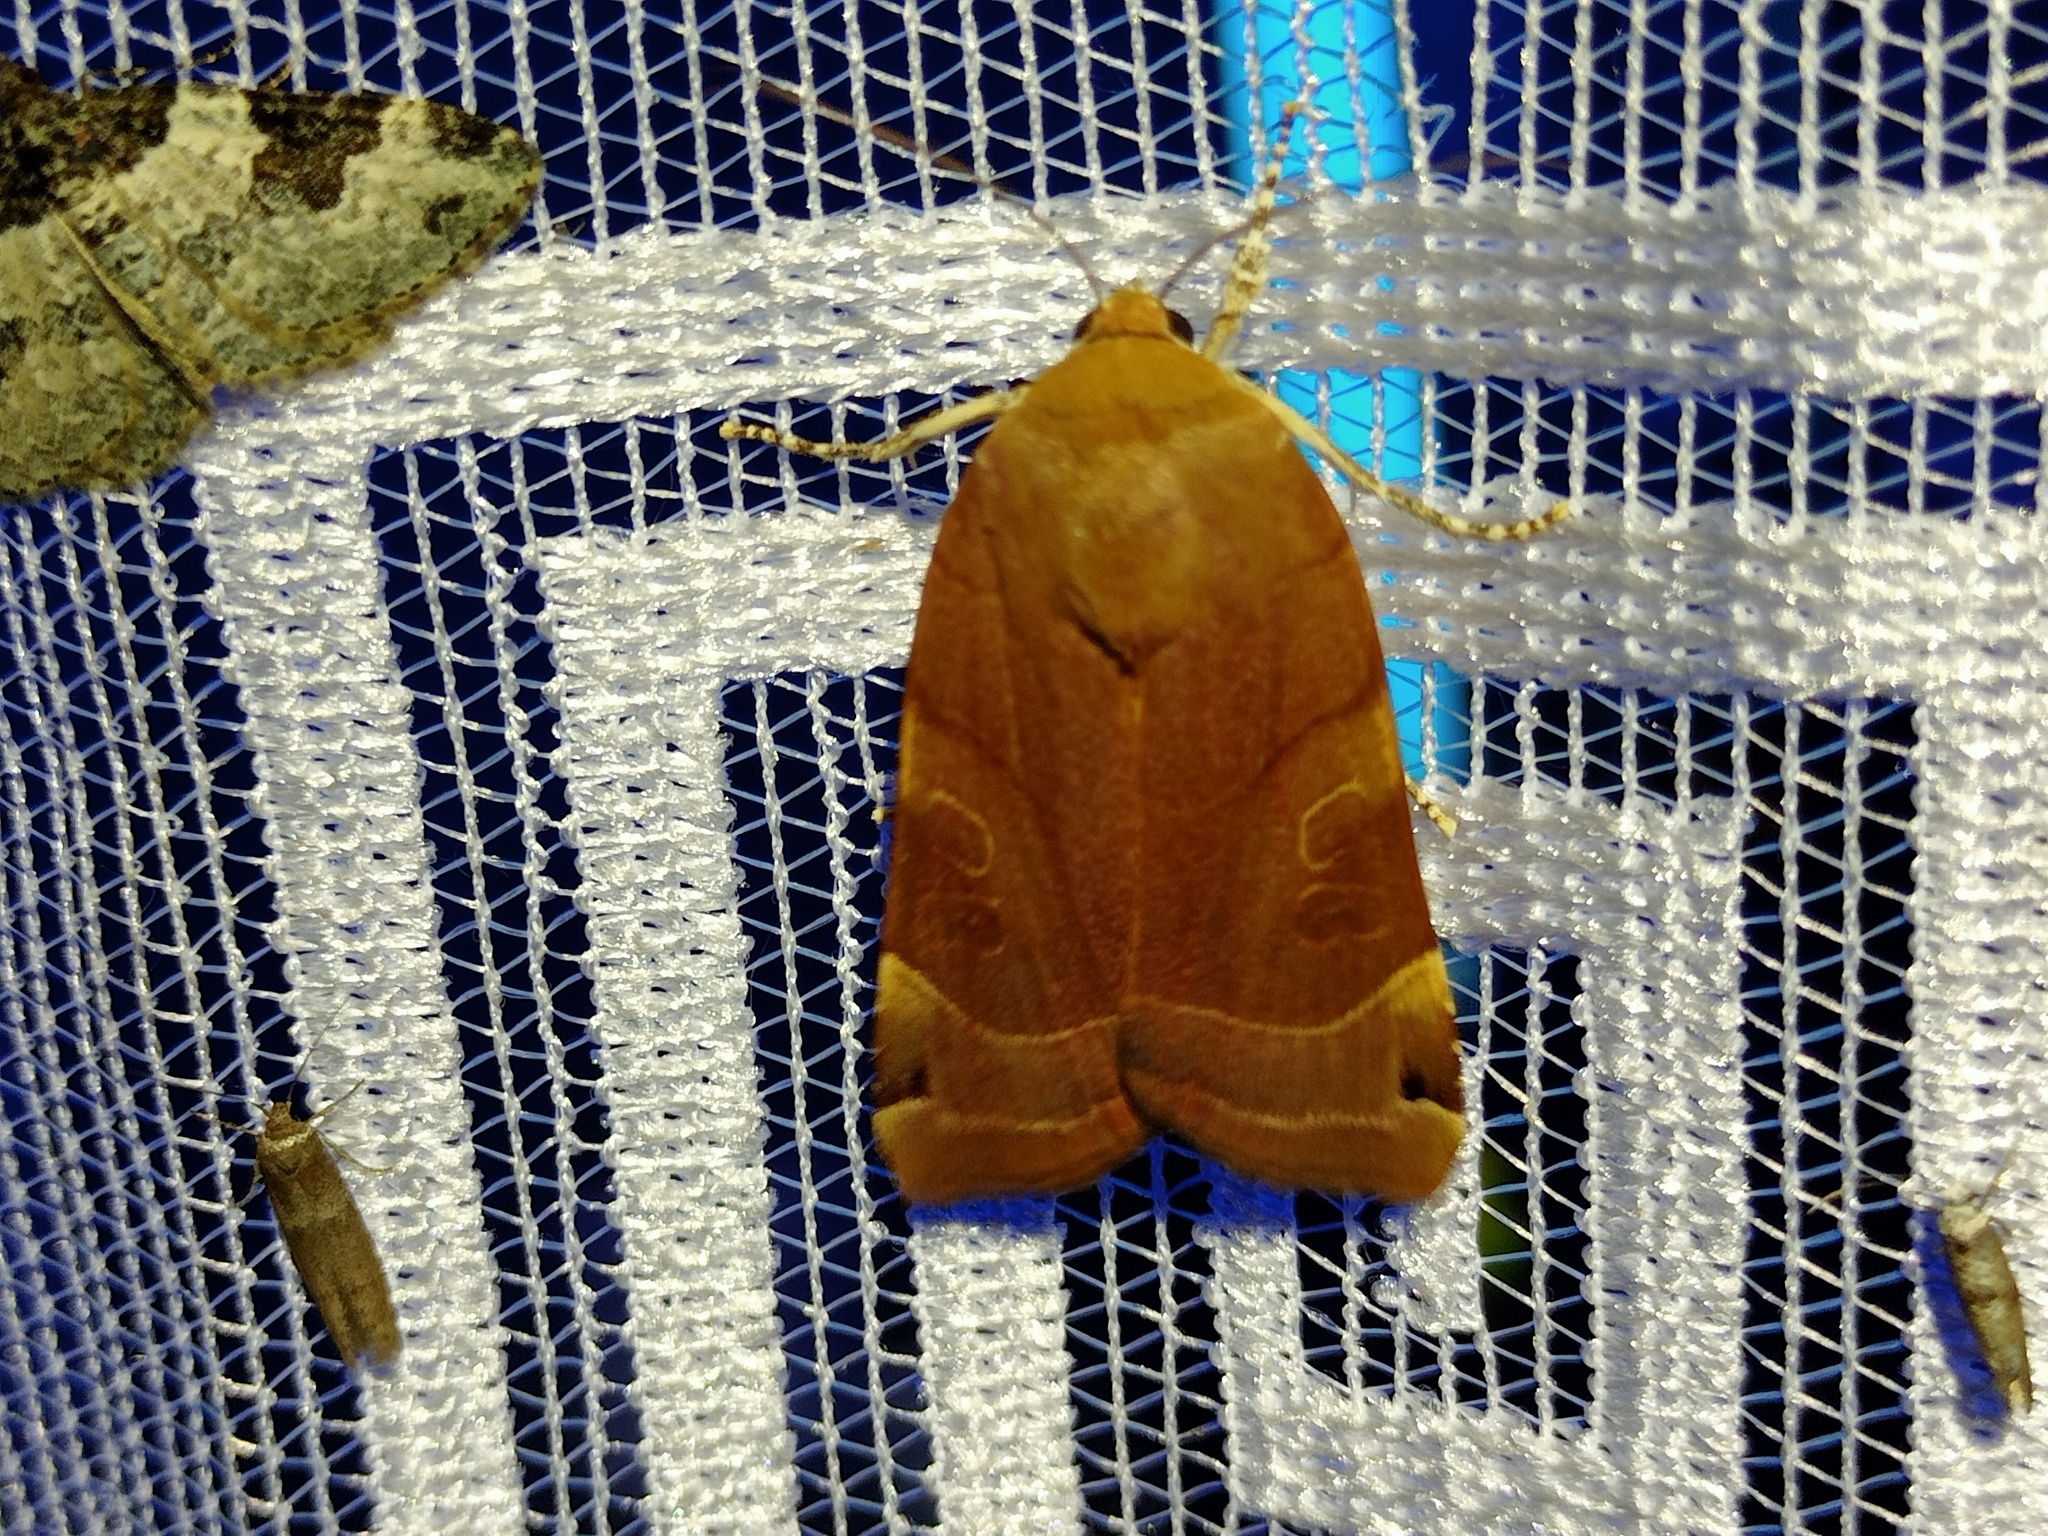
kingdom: Animalia
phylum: Arthropoda
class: Insecta
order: Lepidoptera
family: Noctuidae
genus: Noctua
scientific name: Noctua fimbriata
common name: Broad-bordered yellow underwing
